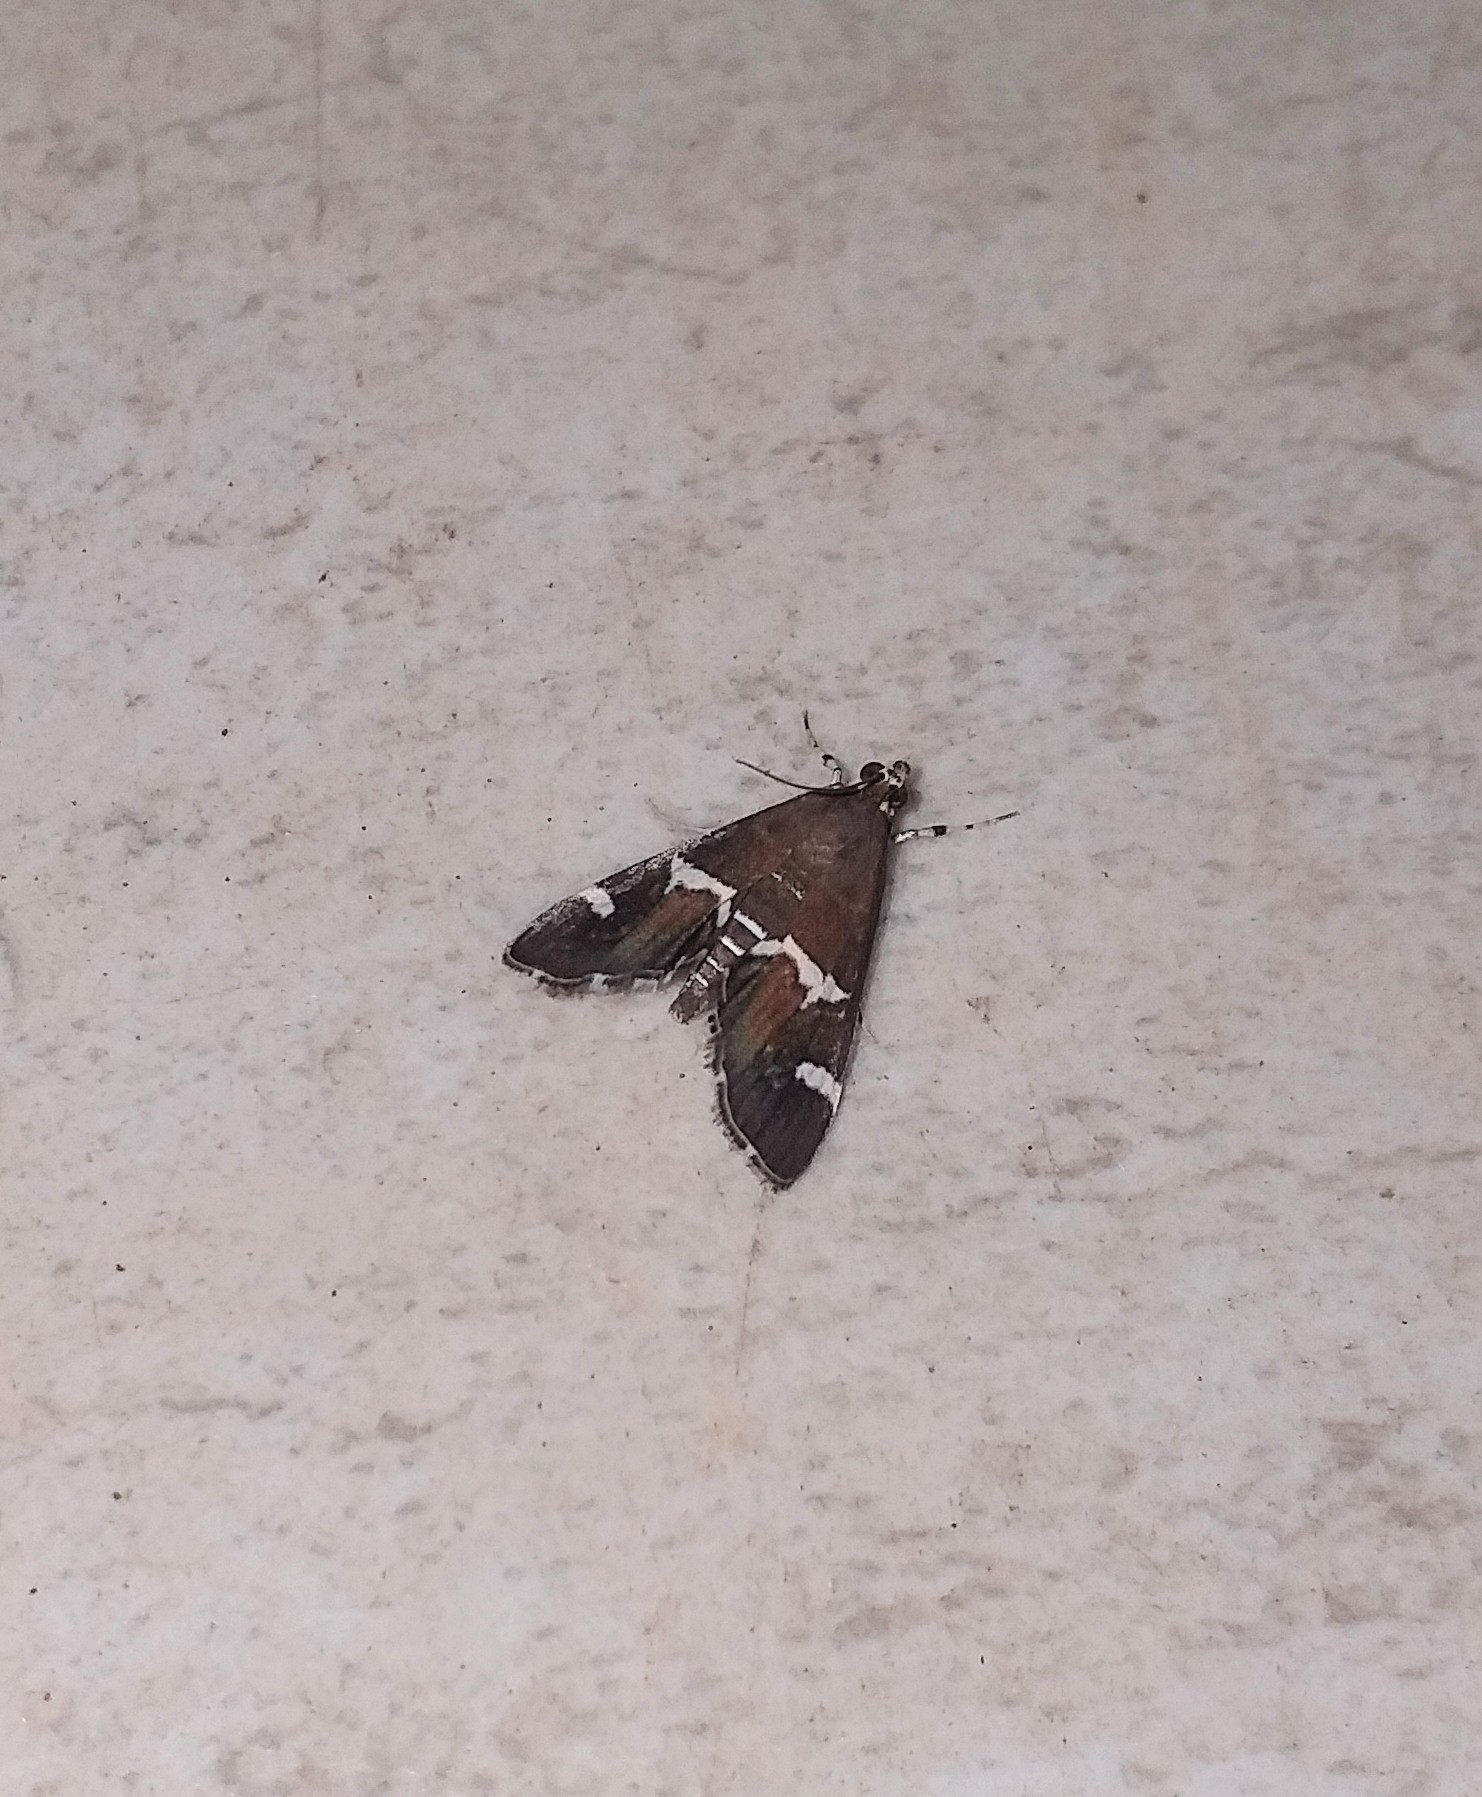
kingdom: Animalia
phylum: Arthropoda
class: Insecta
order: Lepidoptera
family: Crambidae
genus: Spoladea
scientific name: Spoladea recurvalis
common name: Beet webworm moth
